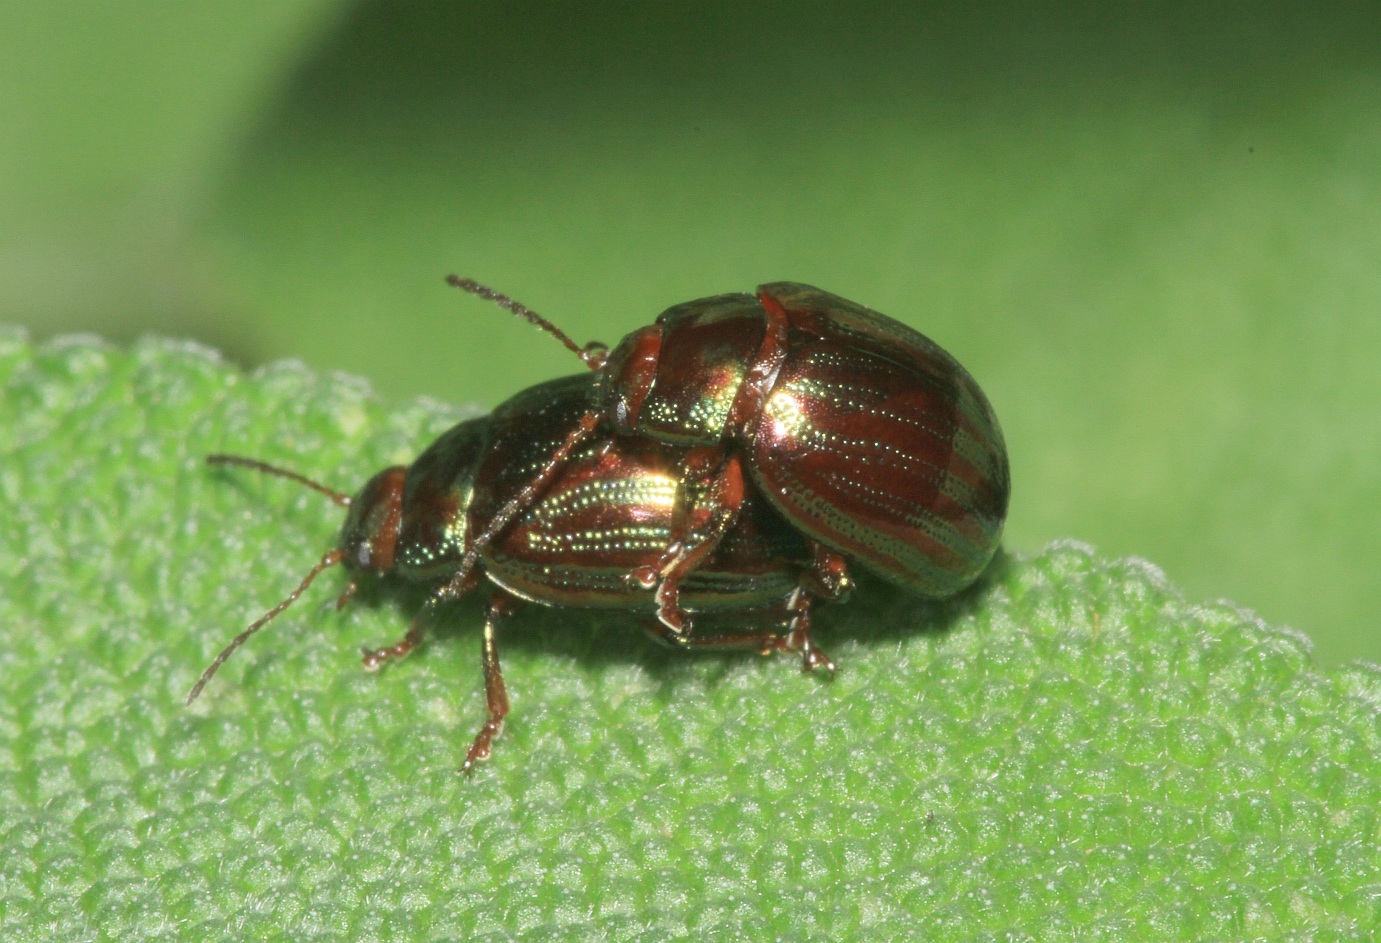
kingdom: Animalia
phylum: Arthropoda
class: Insecta
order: Coleoptera
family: Chrysomelidae
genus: Chrysolina
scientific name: Chrysolina americana
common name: Rosemary beetle
